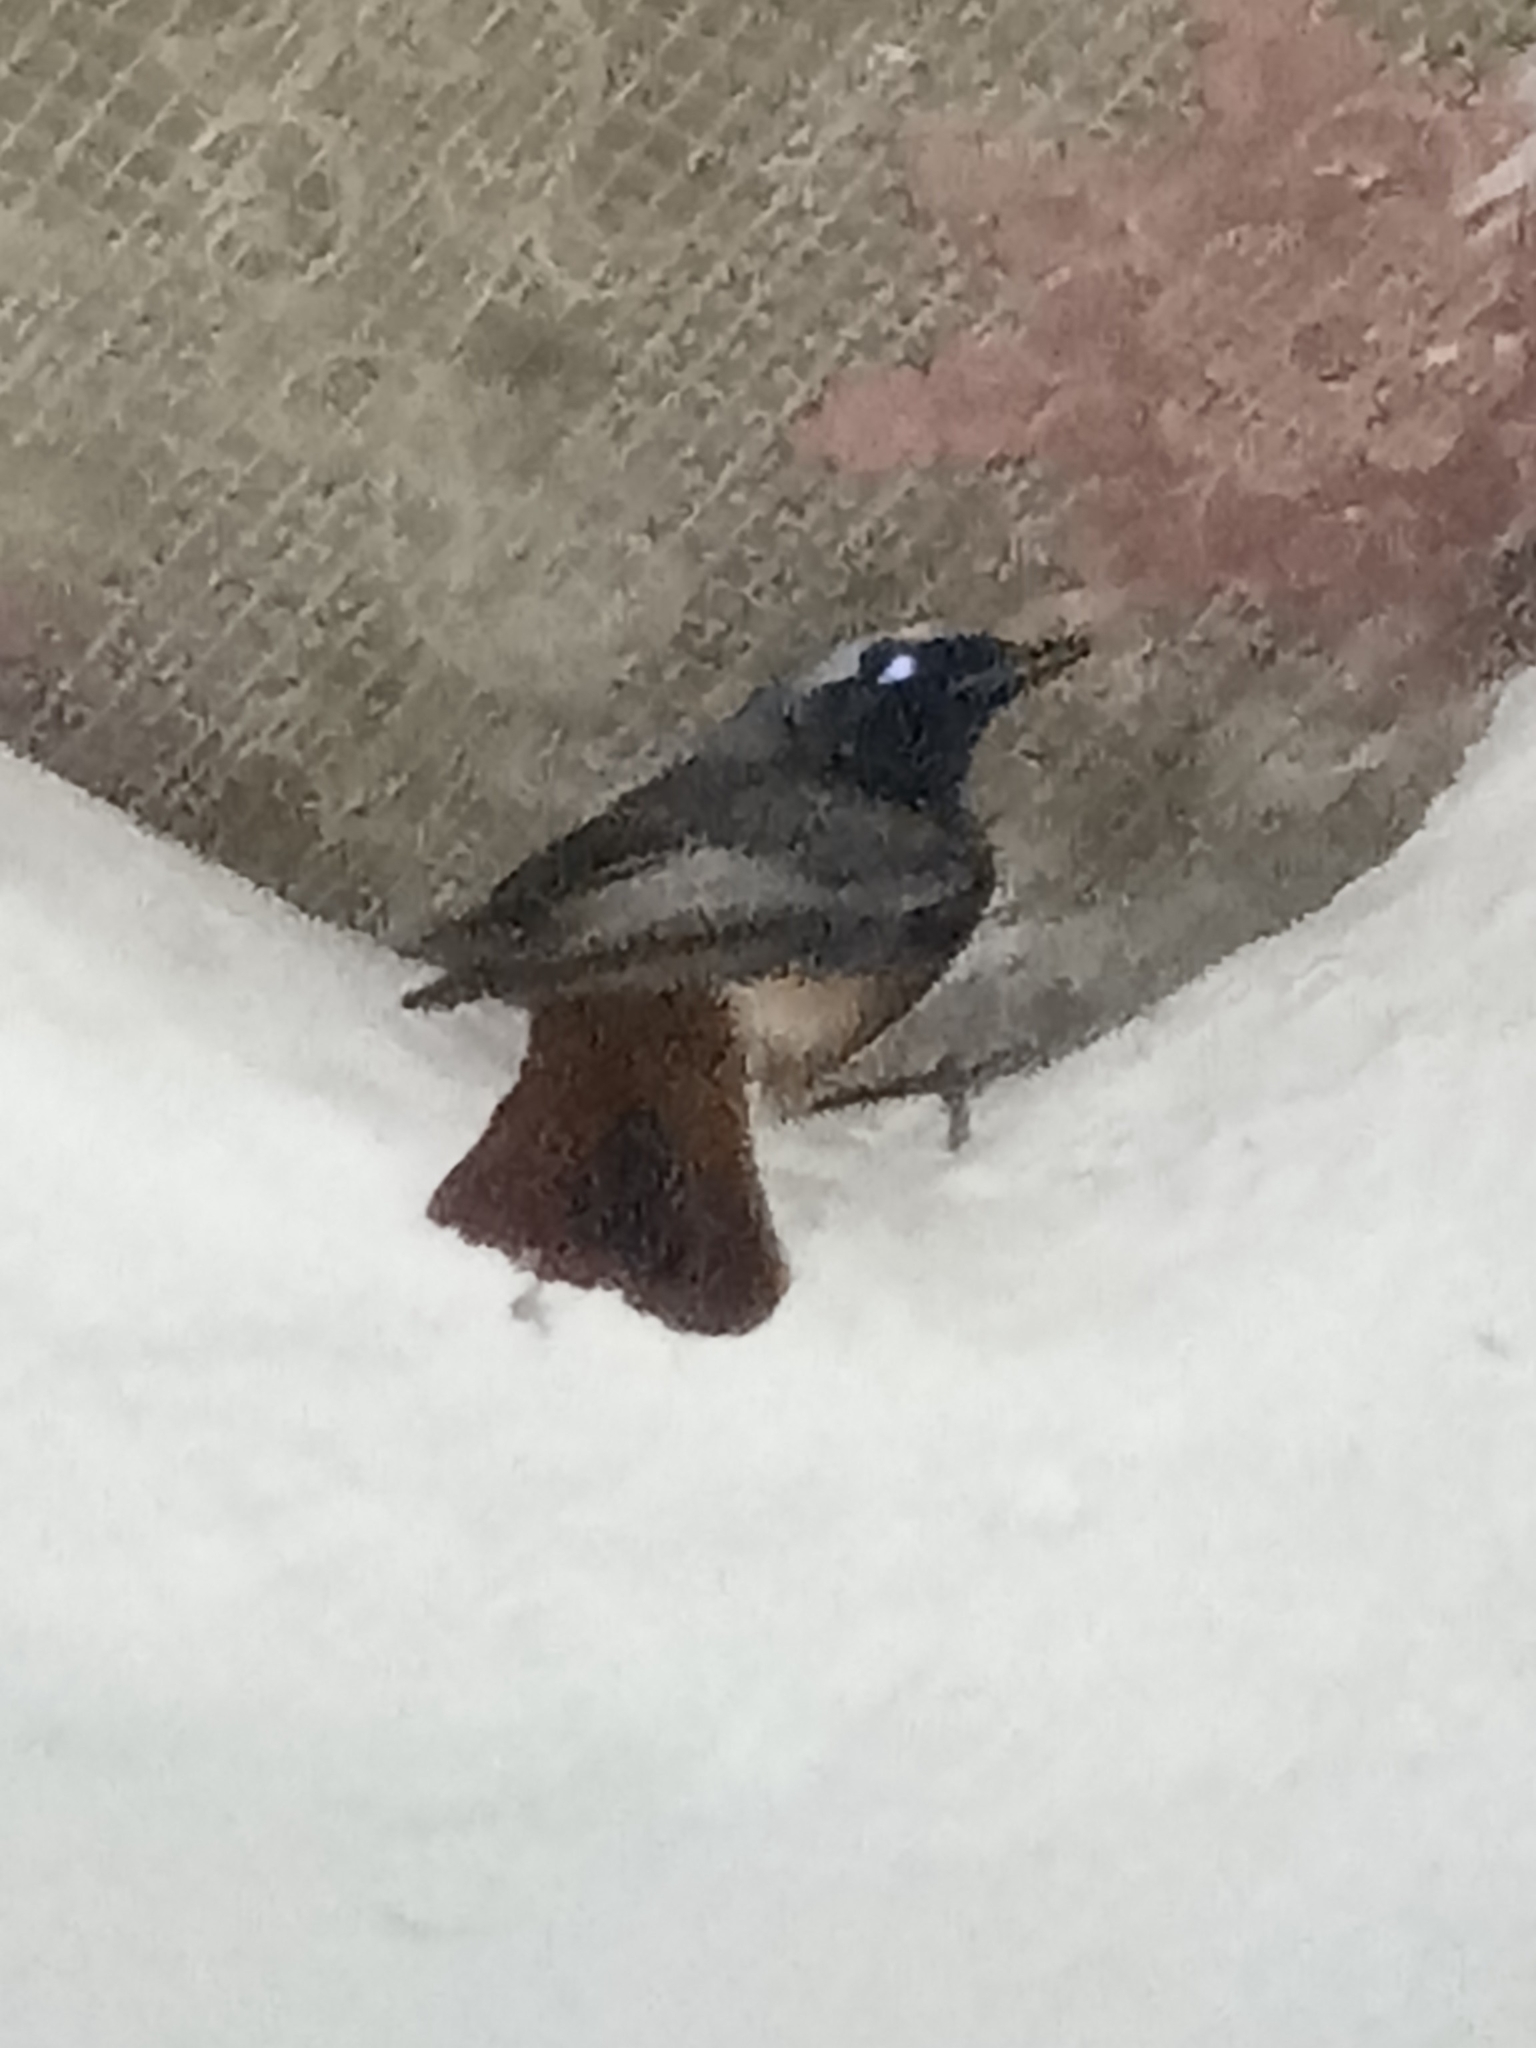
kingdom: Animalia
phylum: Chordata
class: Aves
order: Passeriformes
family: Muscicapidae
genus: Phoenicurus
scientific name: Phoenicurus phoenicurus
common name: Common redstart
